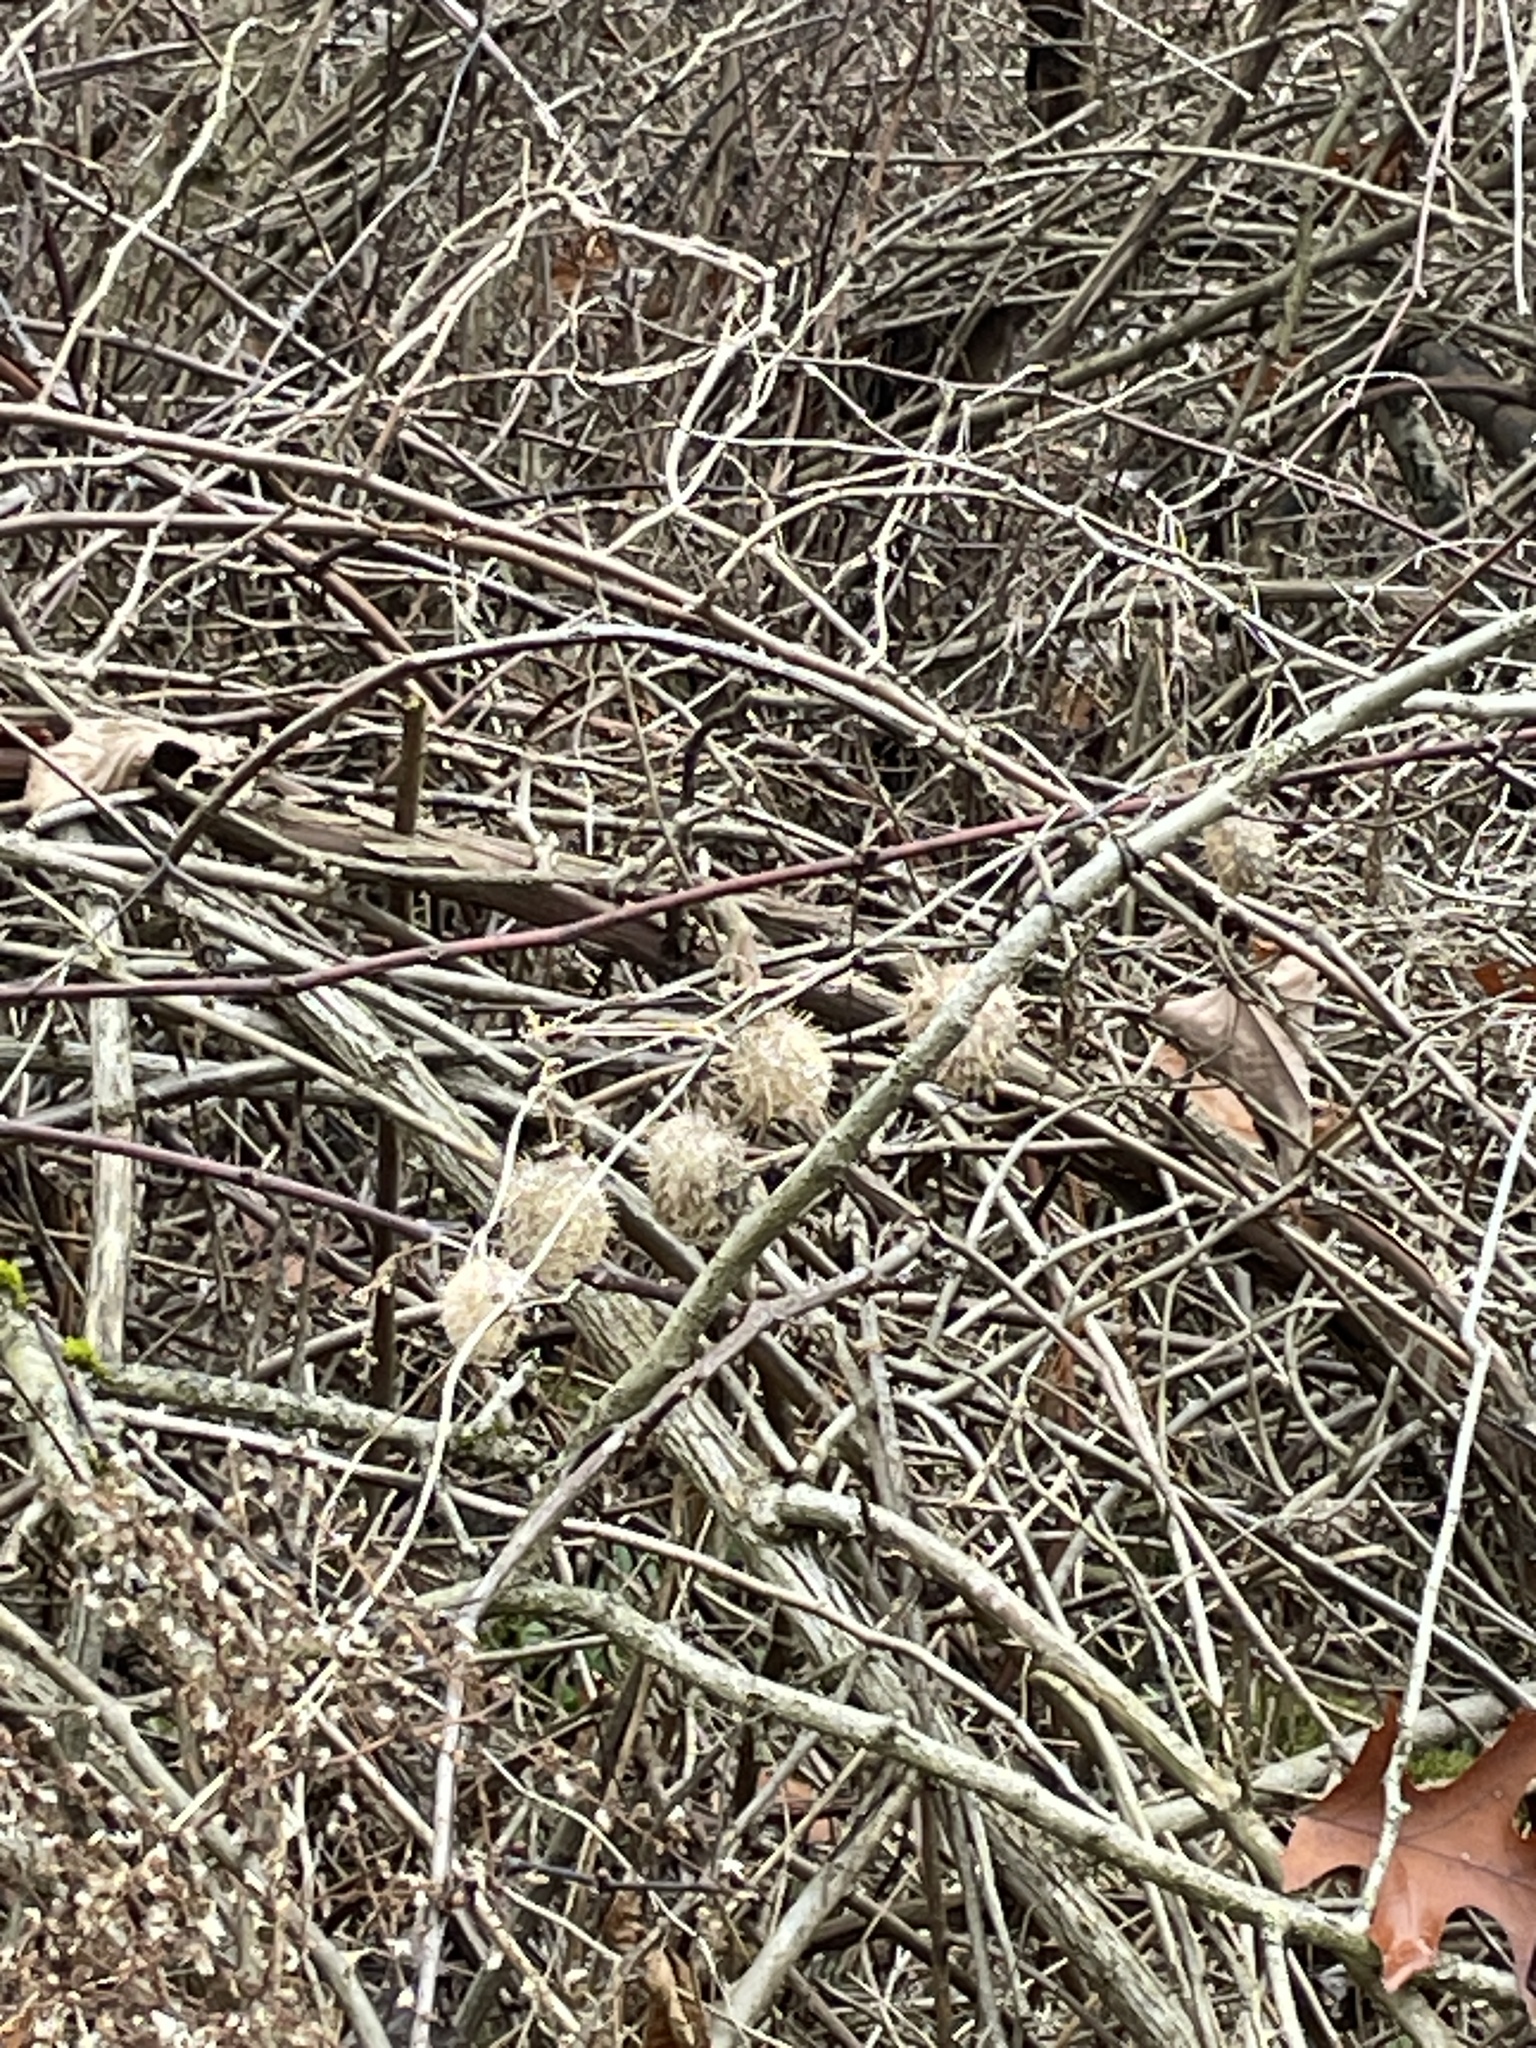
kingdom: Plantae
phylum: Tracheophyta
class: Magnoliopsida
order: Cucurbitales
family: Cucurbitaceae
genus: Echinocystis
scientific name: Echinocystis lobata
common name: Wild cucumber
